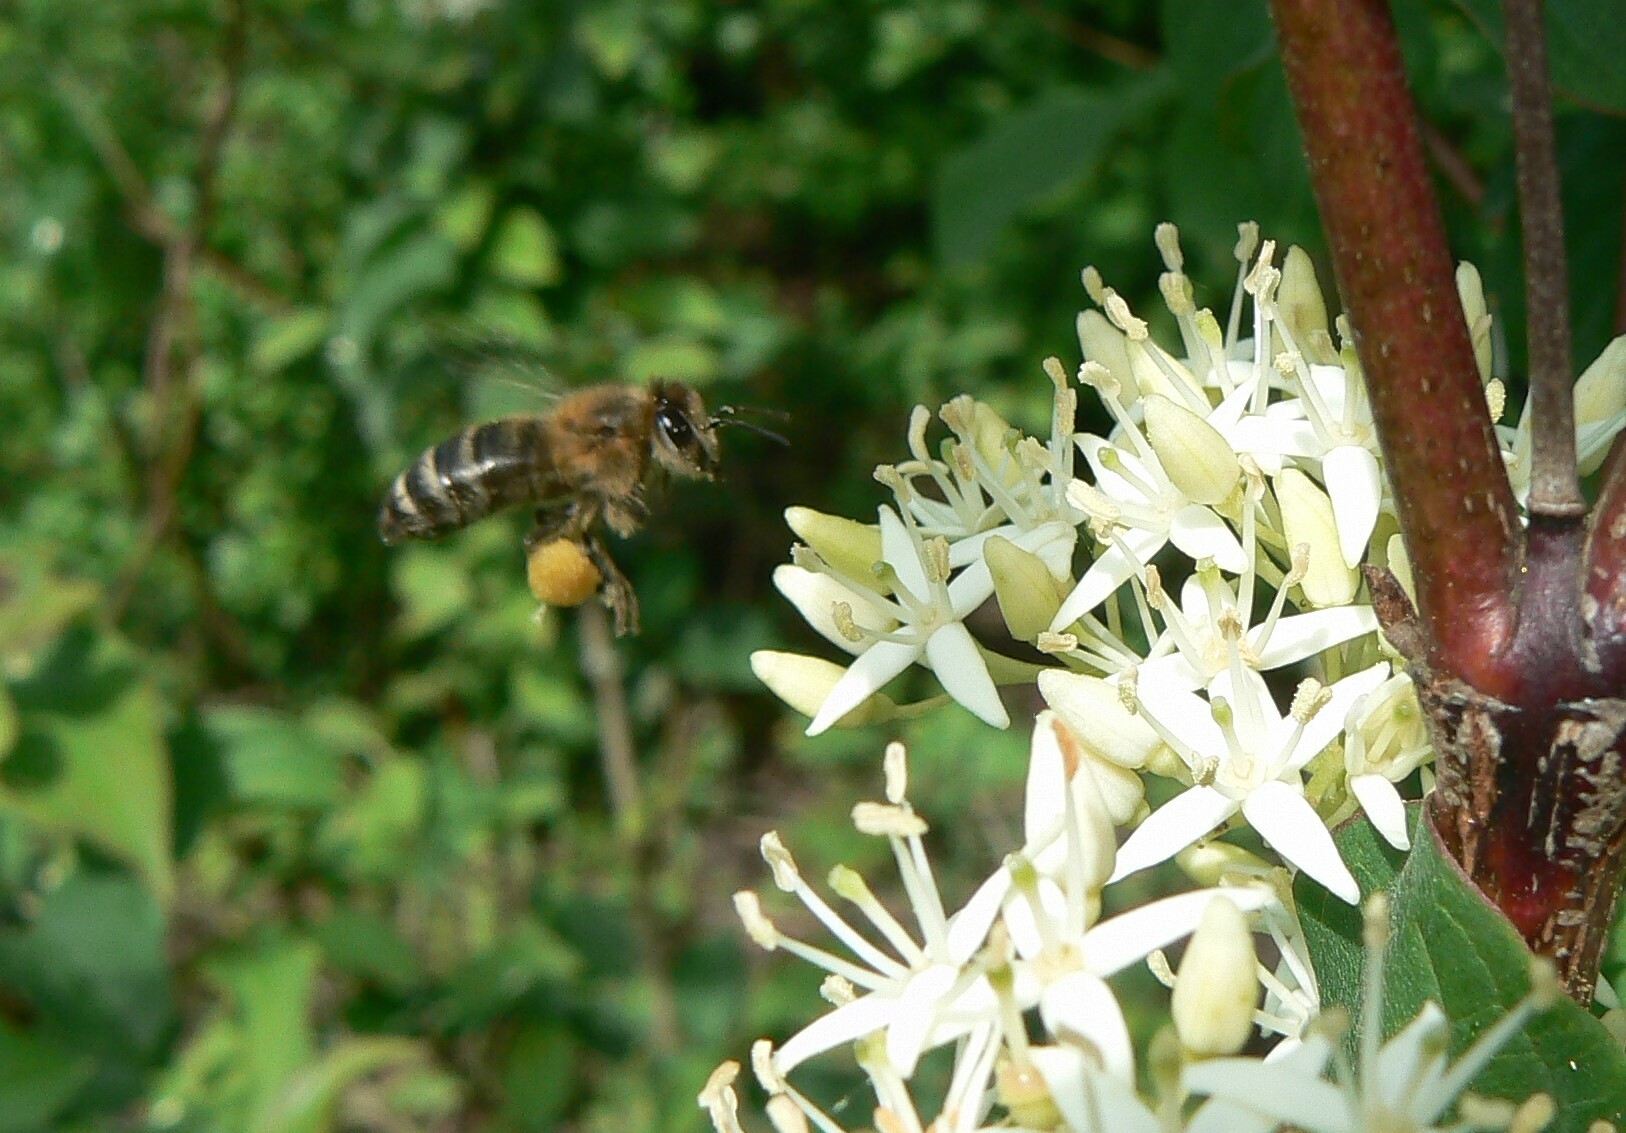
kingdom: Animalia
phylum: Arthropoda
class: Insecta
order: Hymenoptera
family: Apidae
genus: Apis
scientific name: Apis mellifera
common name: Honey bee
